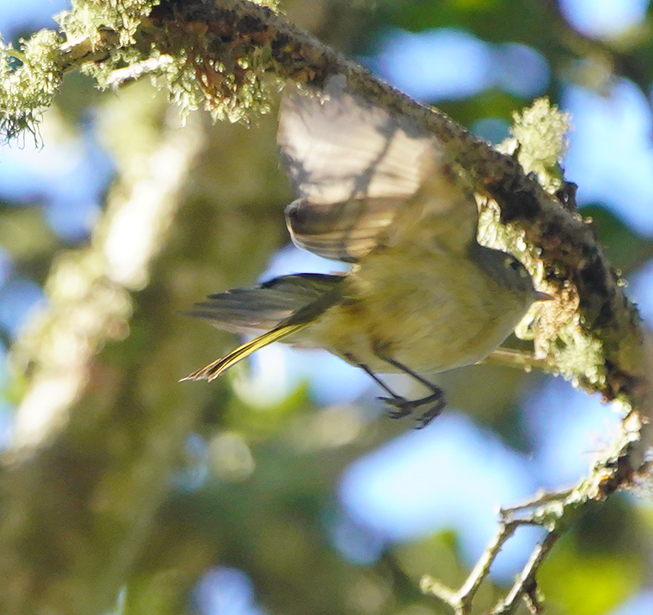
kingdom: Animalia
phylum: Chordata
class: Aves
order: Passeriformes
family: Vireonidae
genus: Vireo
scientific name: Vireo huttoni
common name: Hutton's vireo
